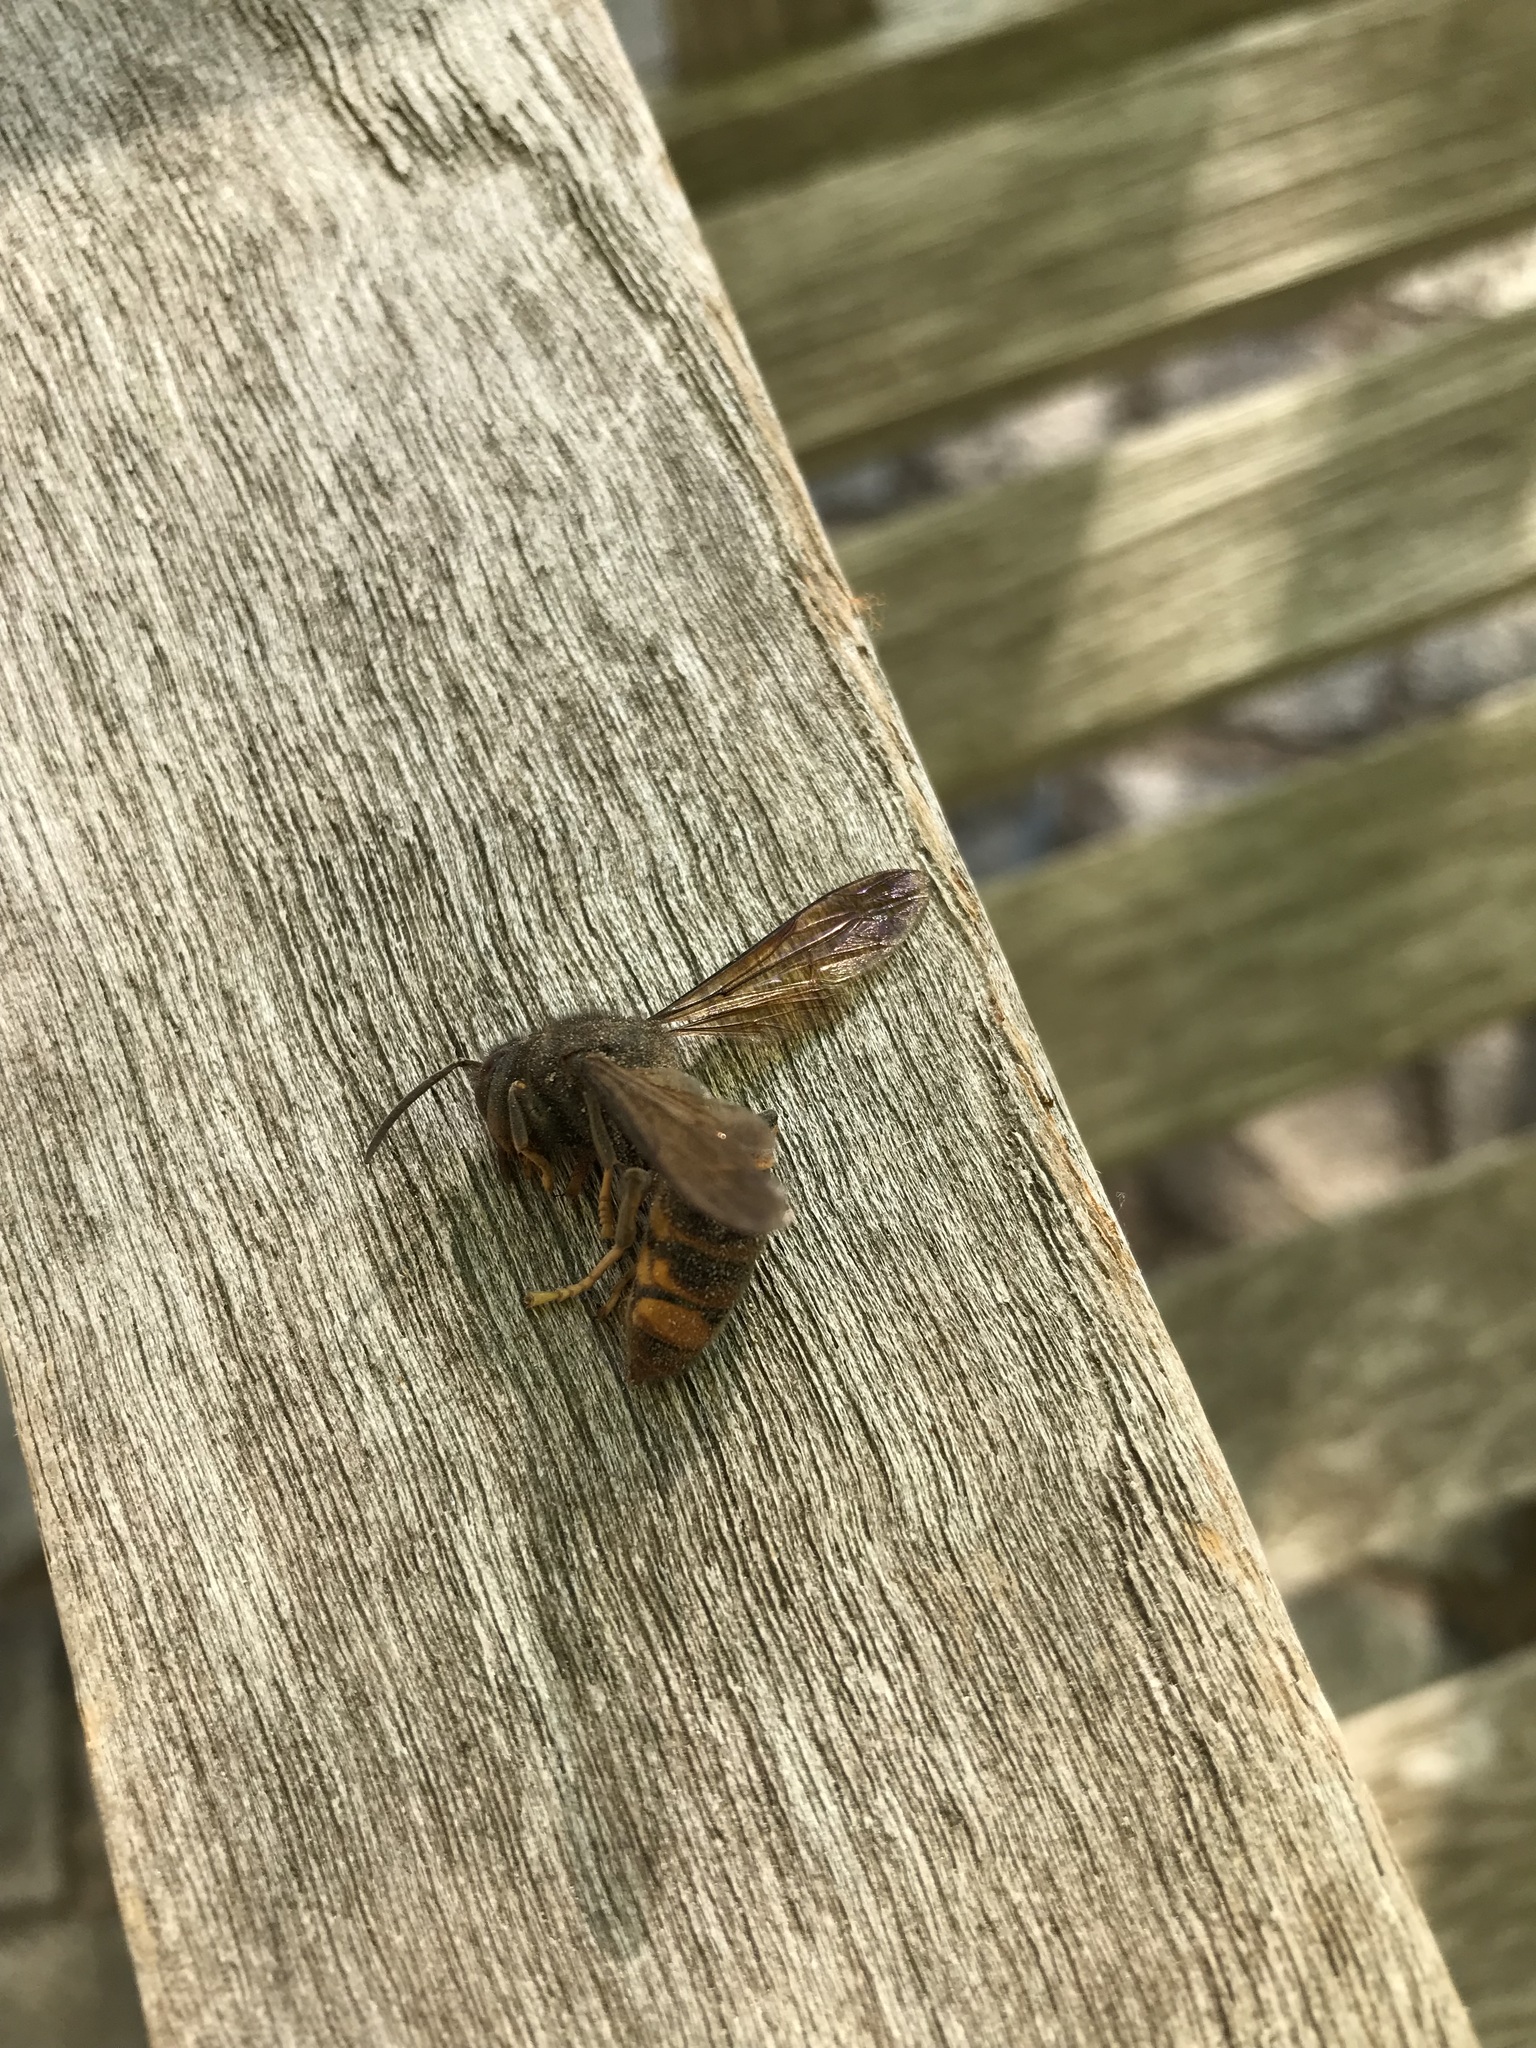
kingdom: Animalia
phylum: Arthropoda
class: Insecta
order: Hymenoptera
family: Vespidae
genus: Vespa
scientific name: Vespa velutina
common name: Asian hornet
